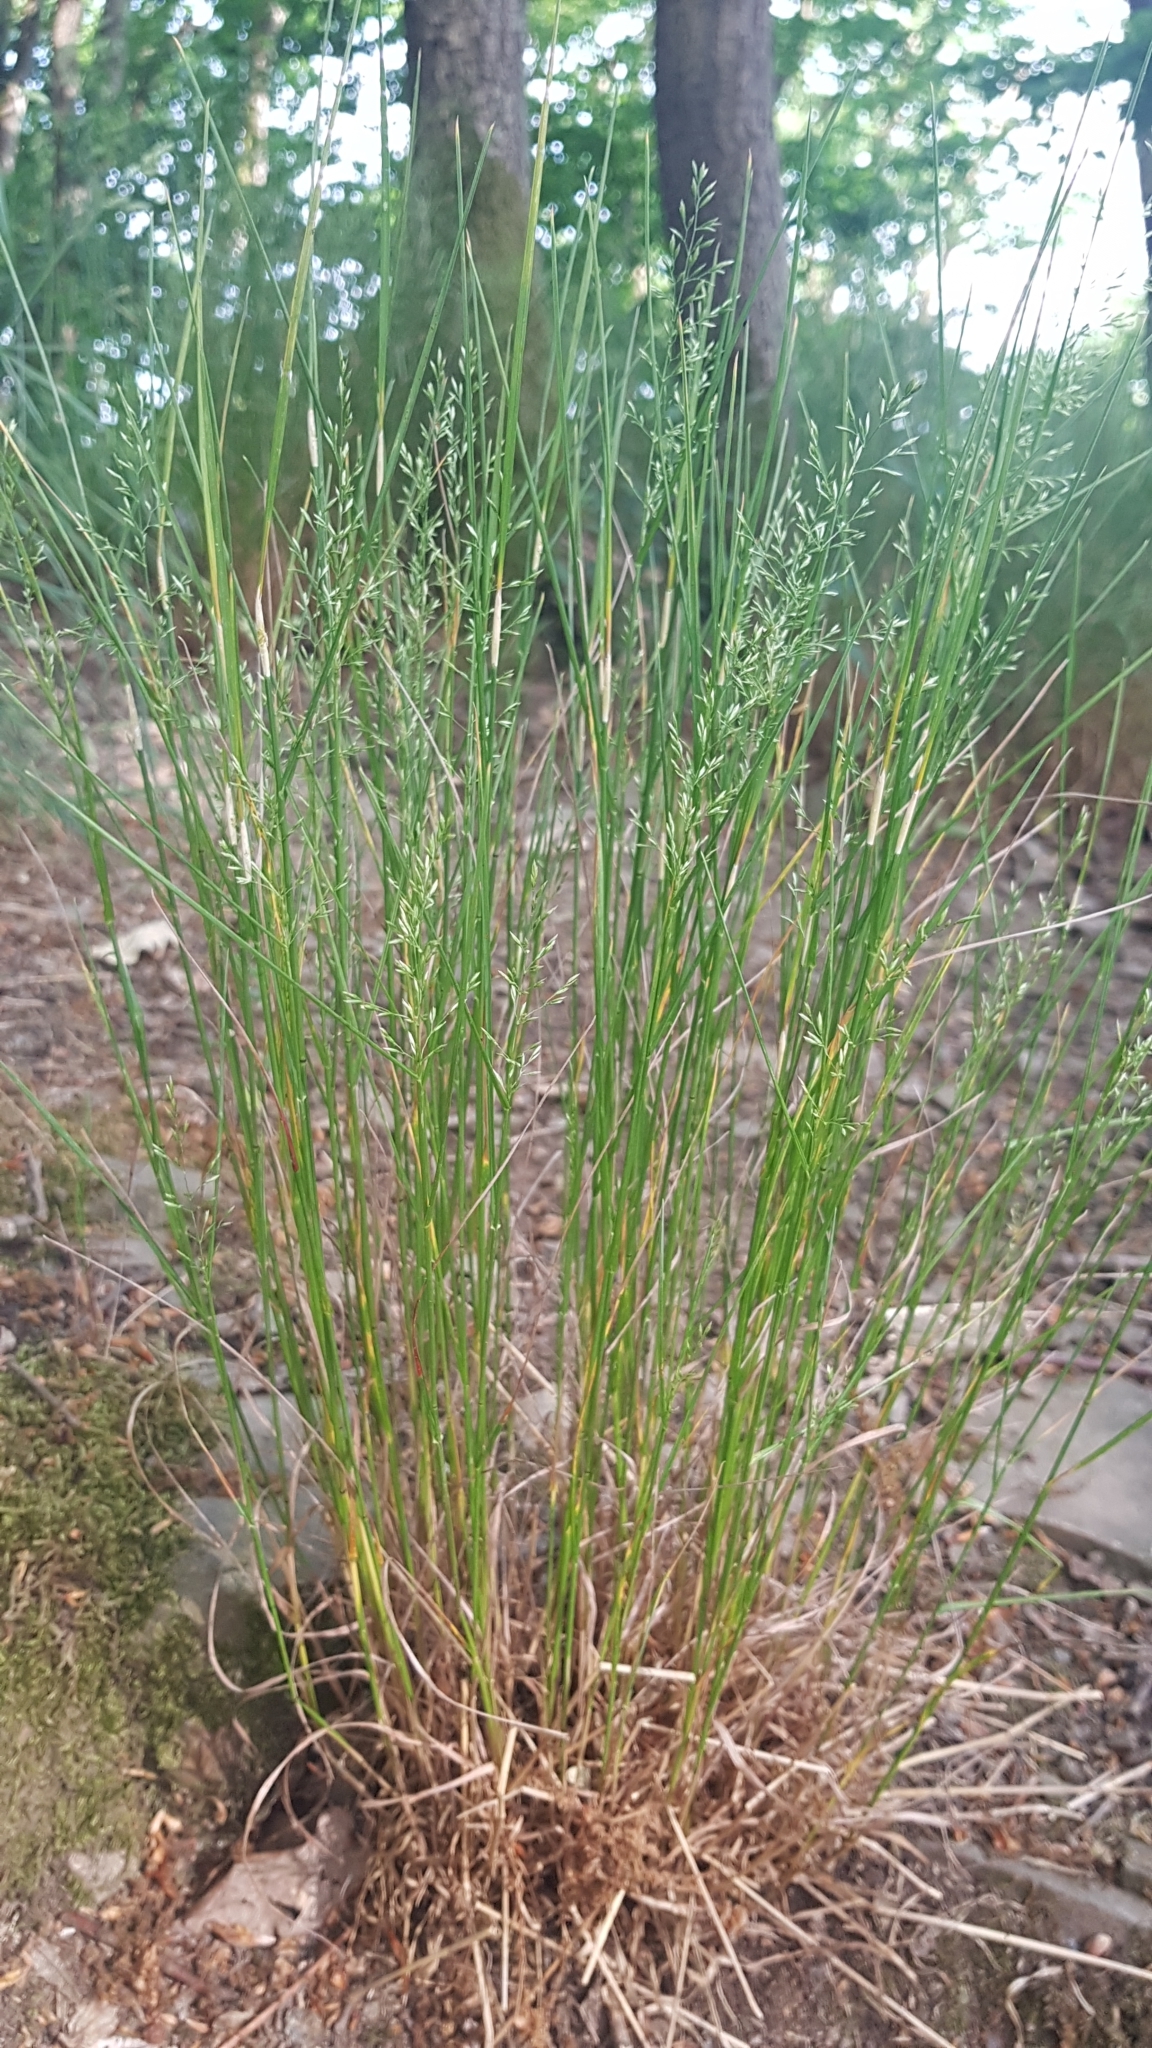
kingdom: Plantae
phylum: Tracheophyta
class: Liliopsida
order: Poales
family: Poaceae
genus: Poa
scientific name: Poa nemoralis
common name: Wood bluegrass
